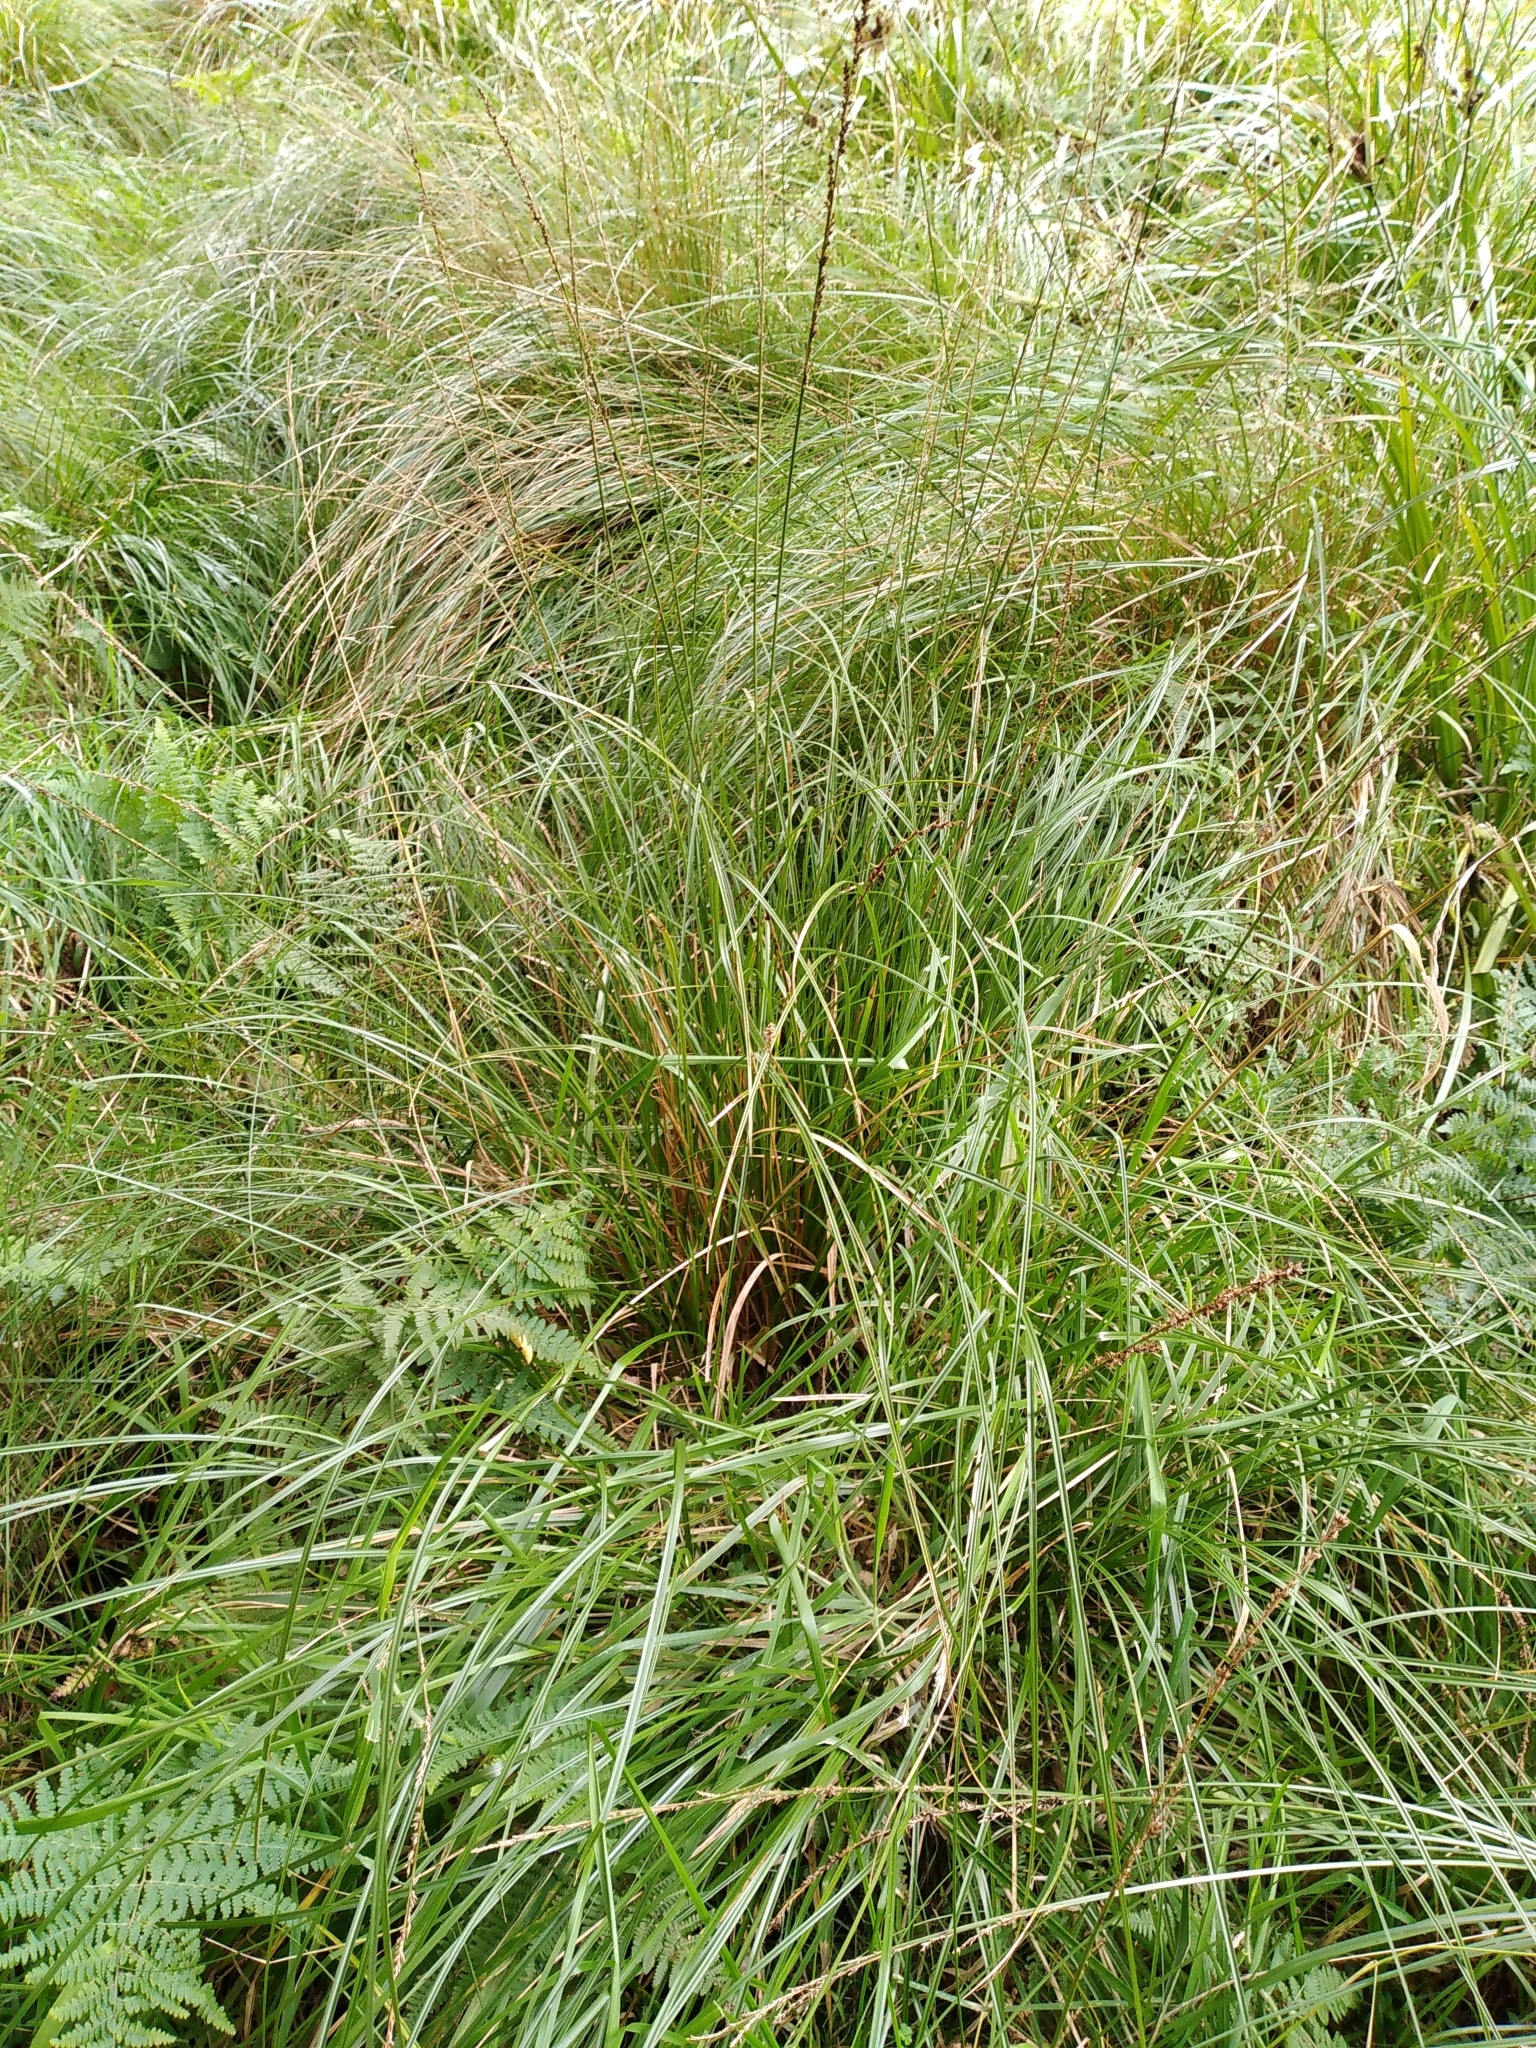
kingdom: Plantae
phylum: Tracheophyta
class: Liliopsida
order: Poales
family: Cyperaceae
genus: Carex
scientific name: Carex virgata
